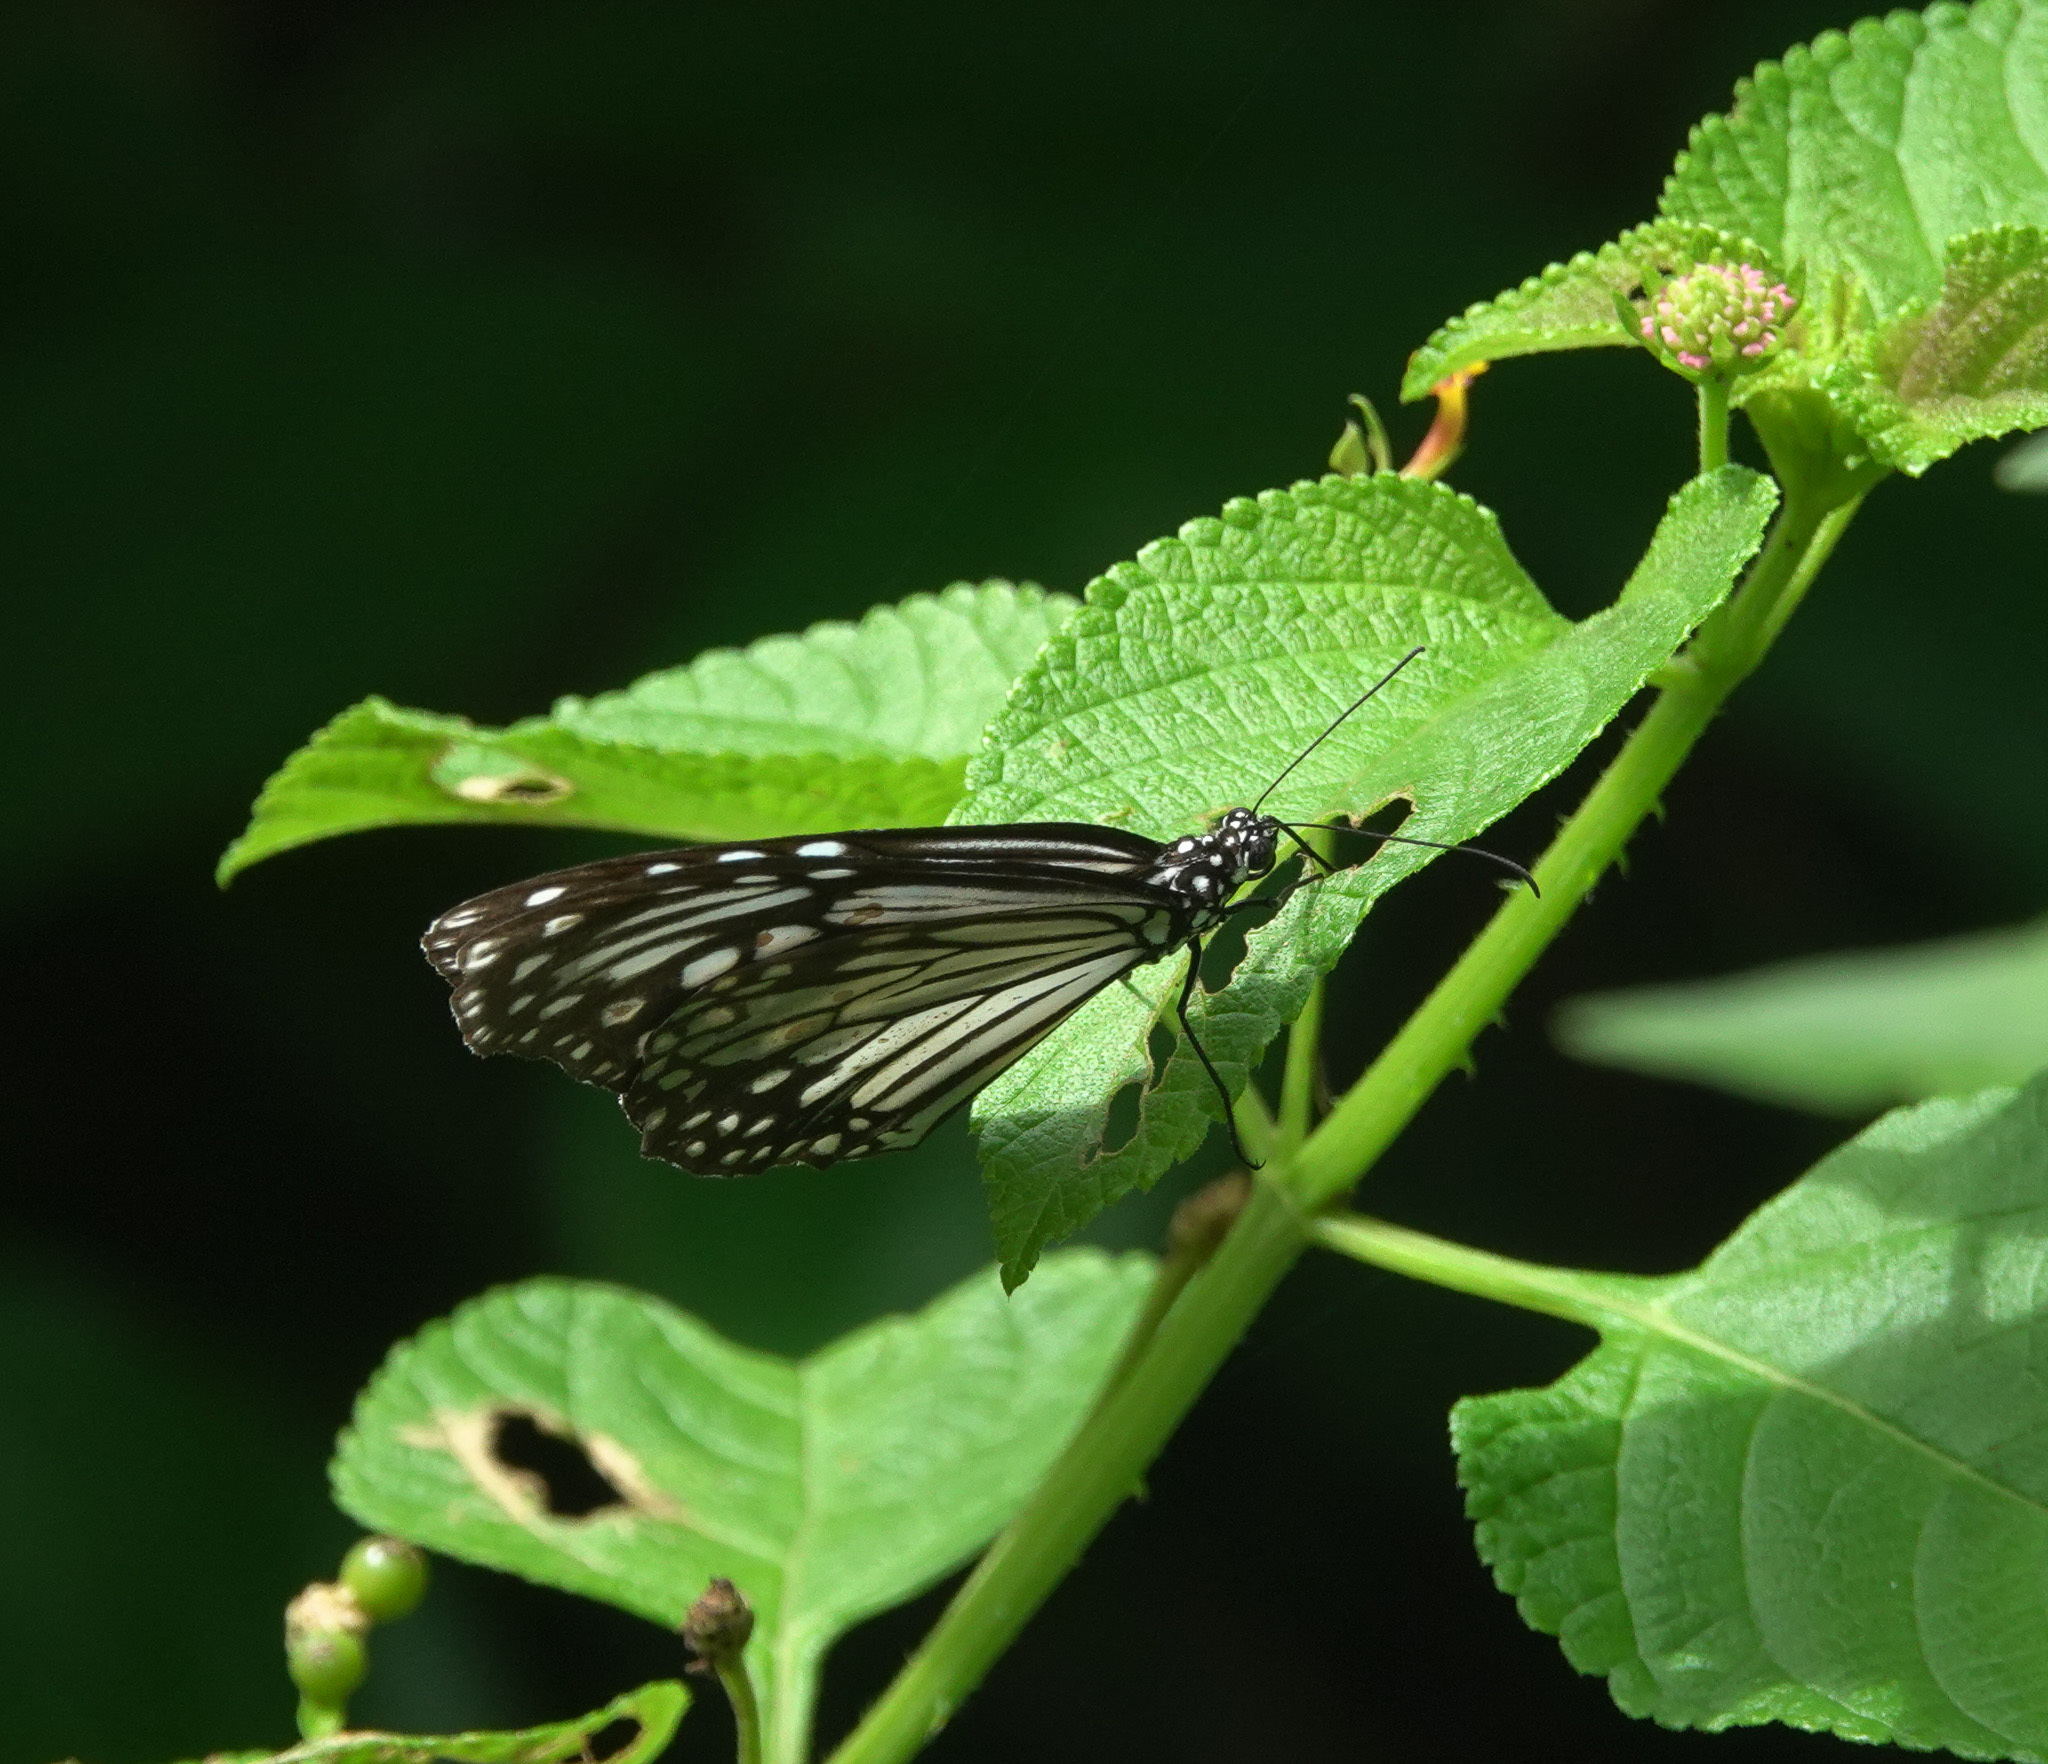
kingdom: Animalia
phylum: Arthropoda
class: Insecta
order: Lepidoptera
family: Nymphalidae
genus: Parantica
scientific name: Parantica aglea
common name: Glassy tiger
